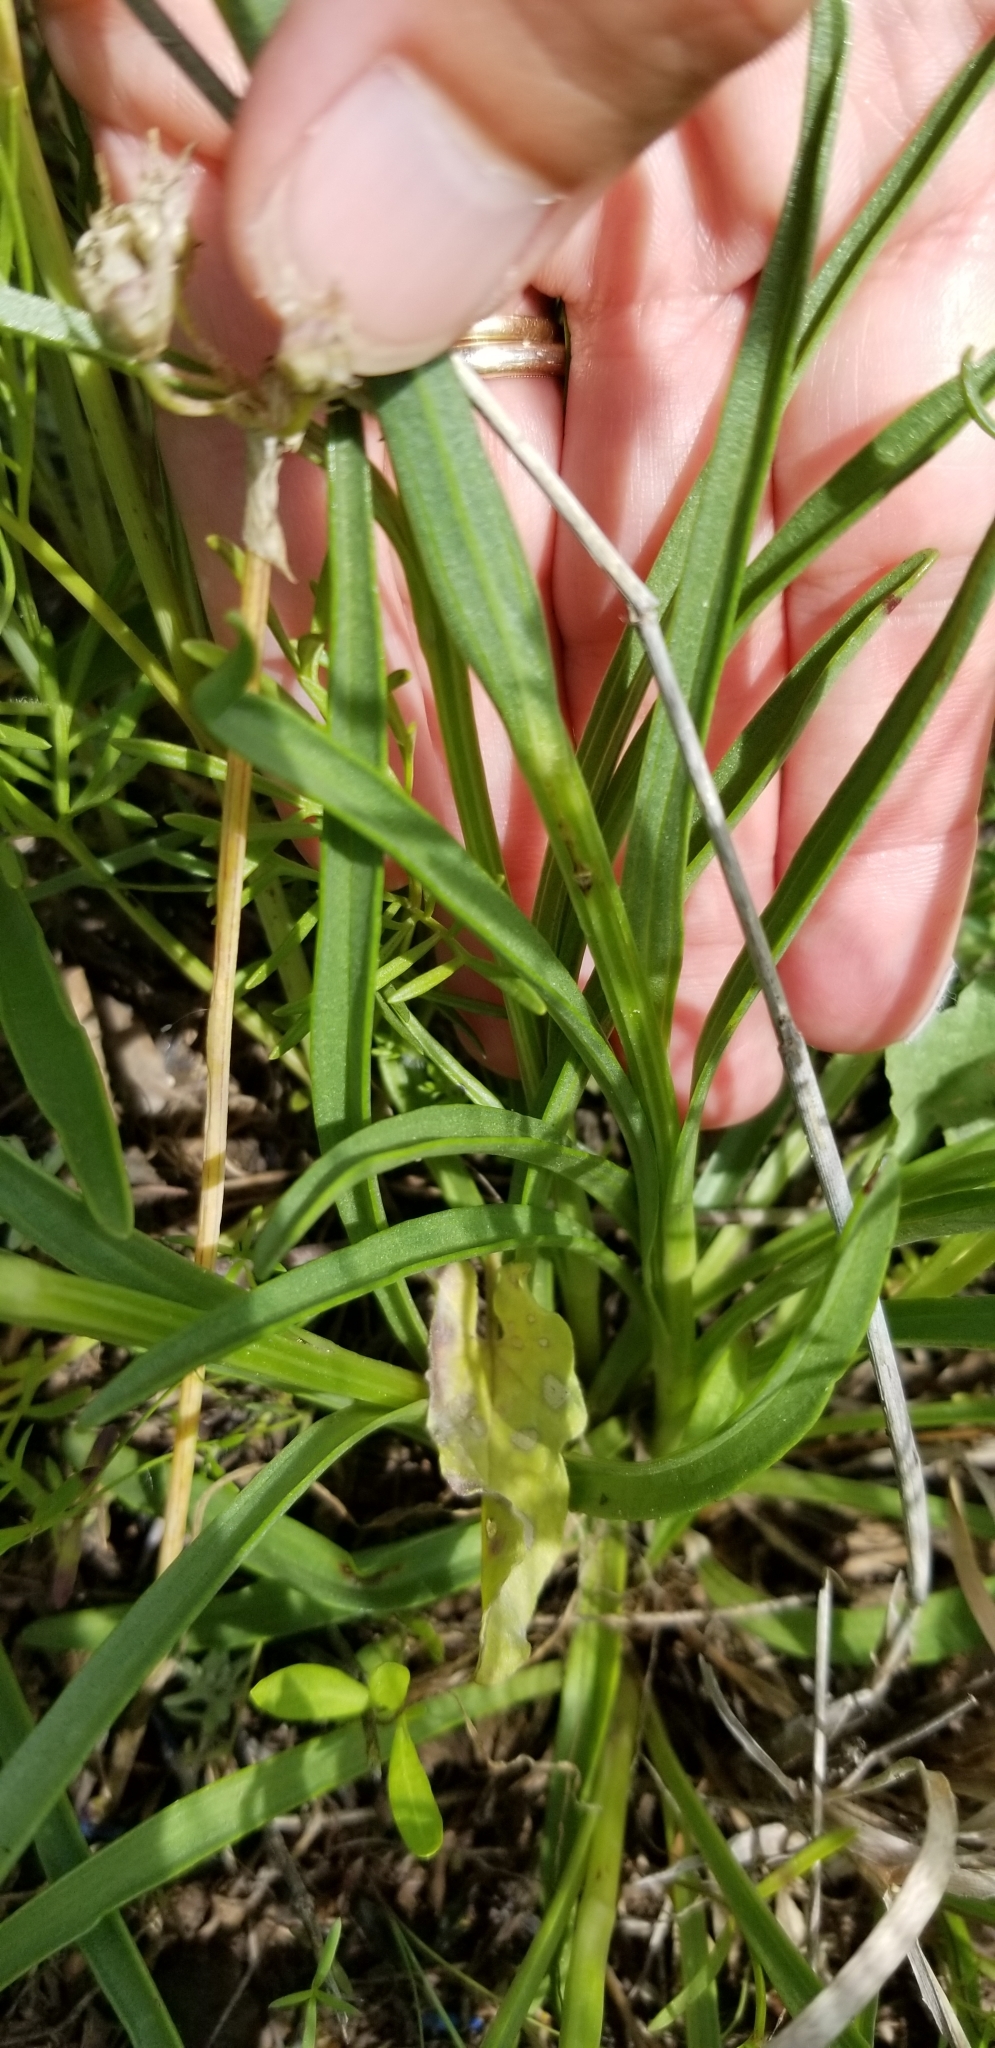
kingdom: Plantae
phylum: Tracheophyta
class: Magnoliopsida
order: Asterales
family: Asteraceae
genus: Marshallia
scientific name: Marshallia caespitosa
